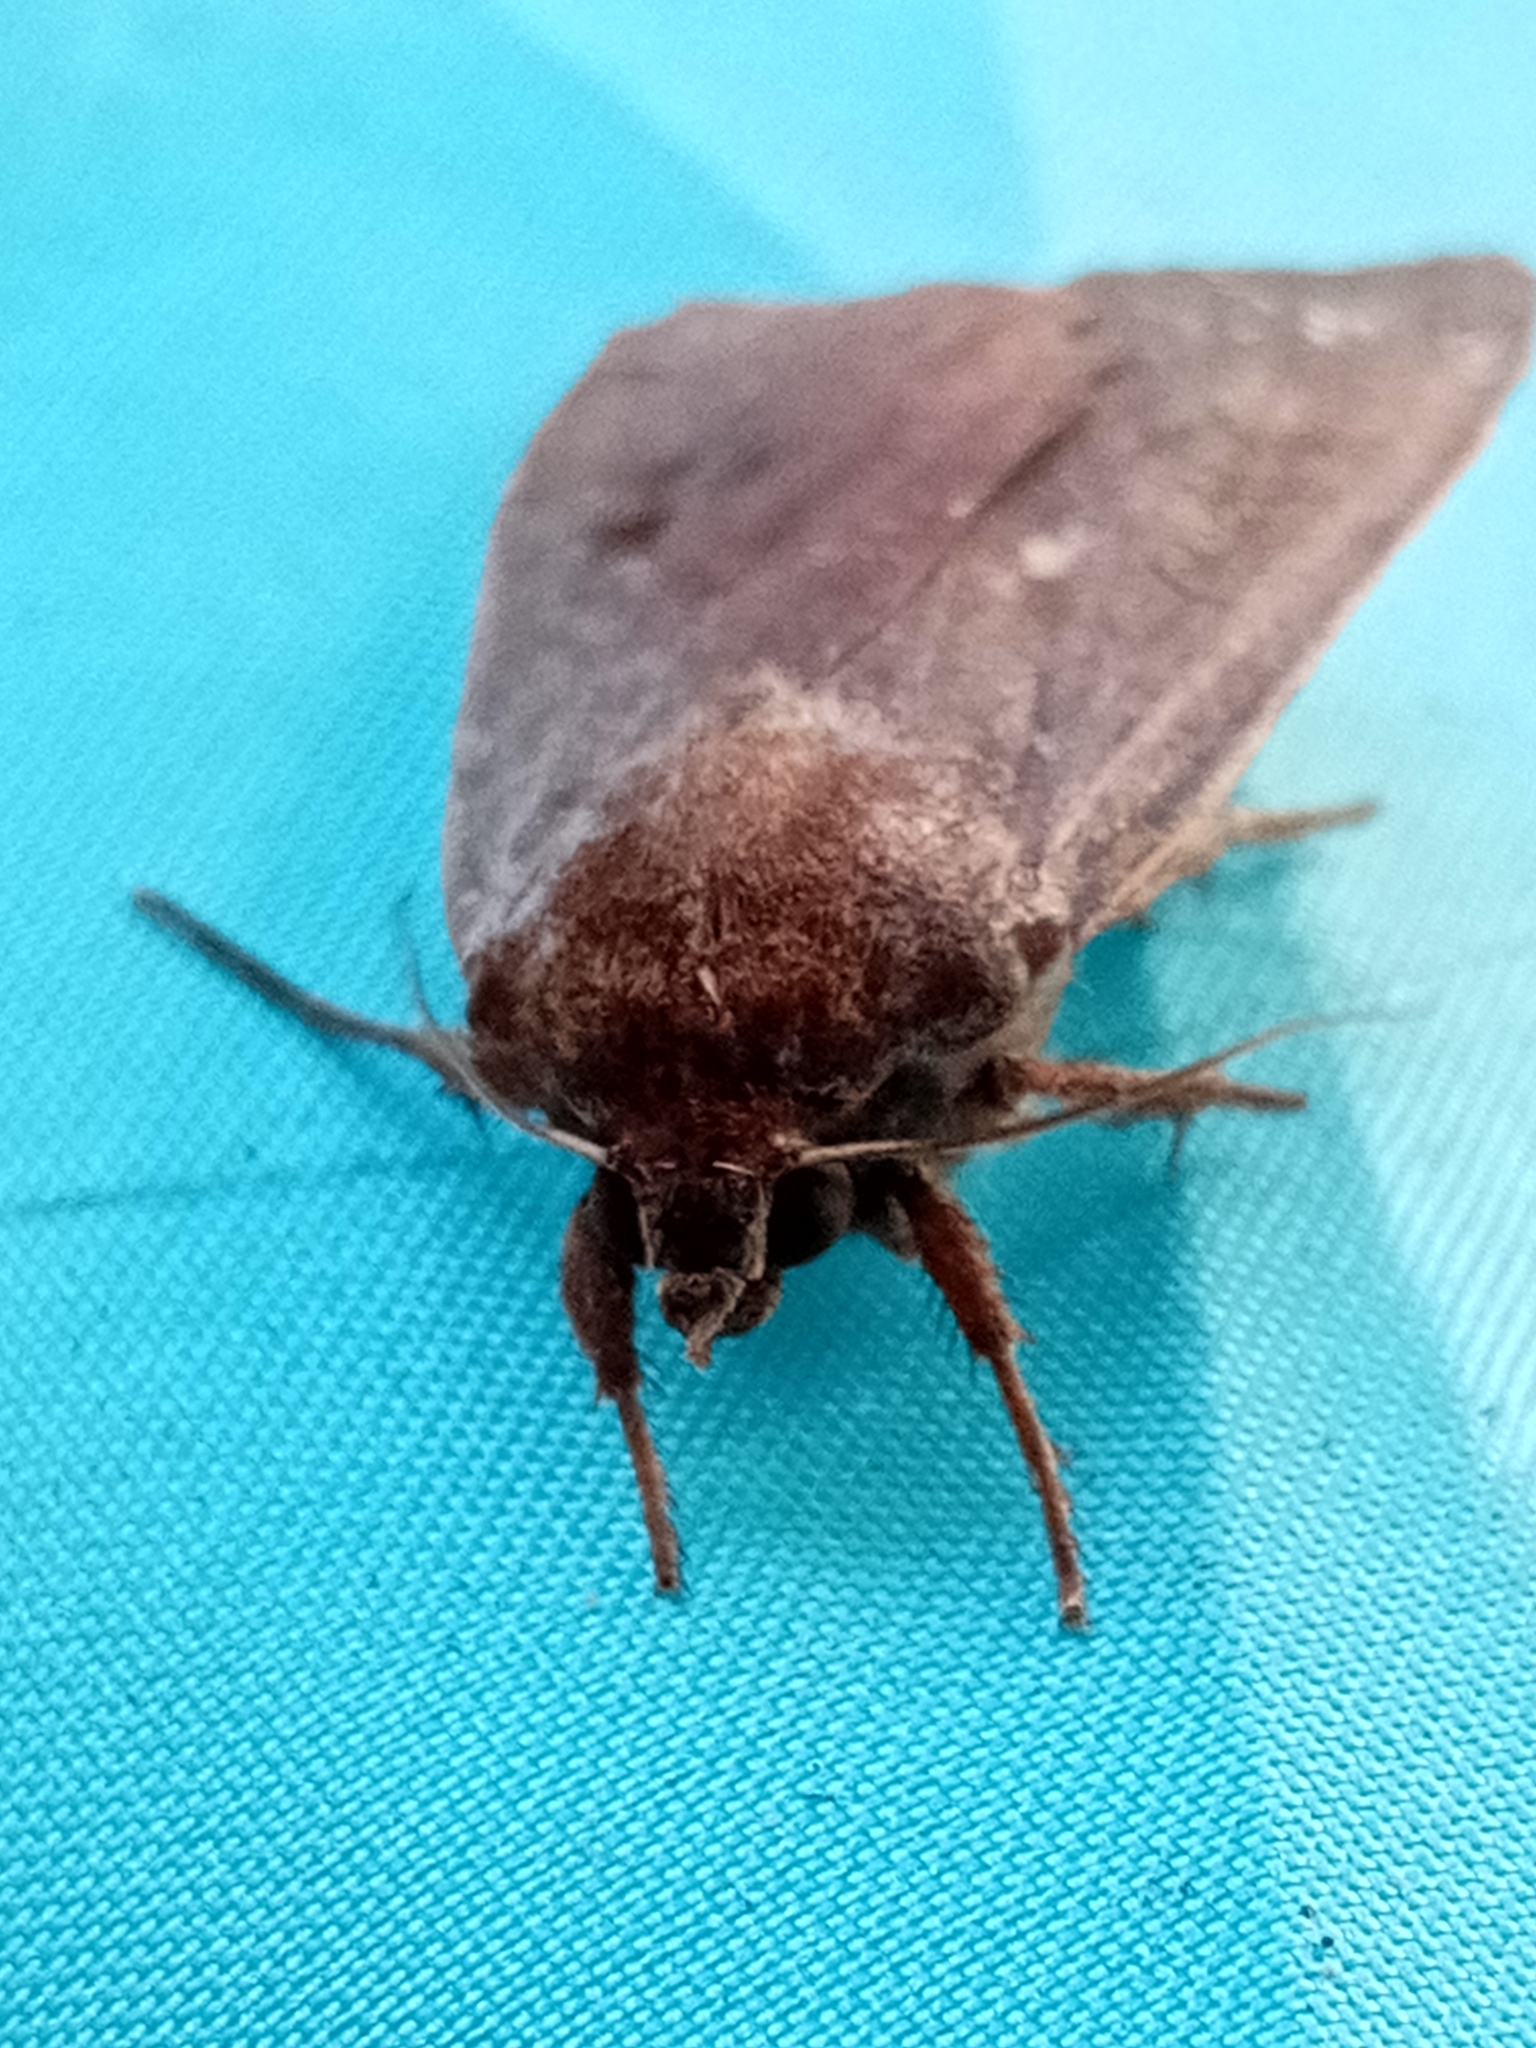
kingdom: Animalia
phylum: Arthropoda
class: Insecta
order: Lepidoptera
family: Noctuidae
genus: Noctua
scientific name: Noctua pronuba
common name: Large yellow underwing
